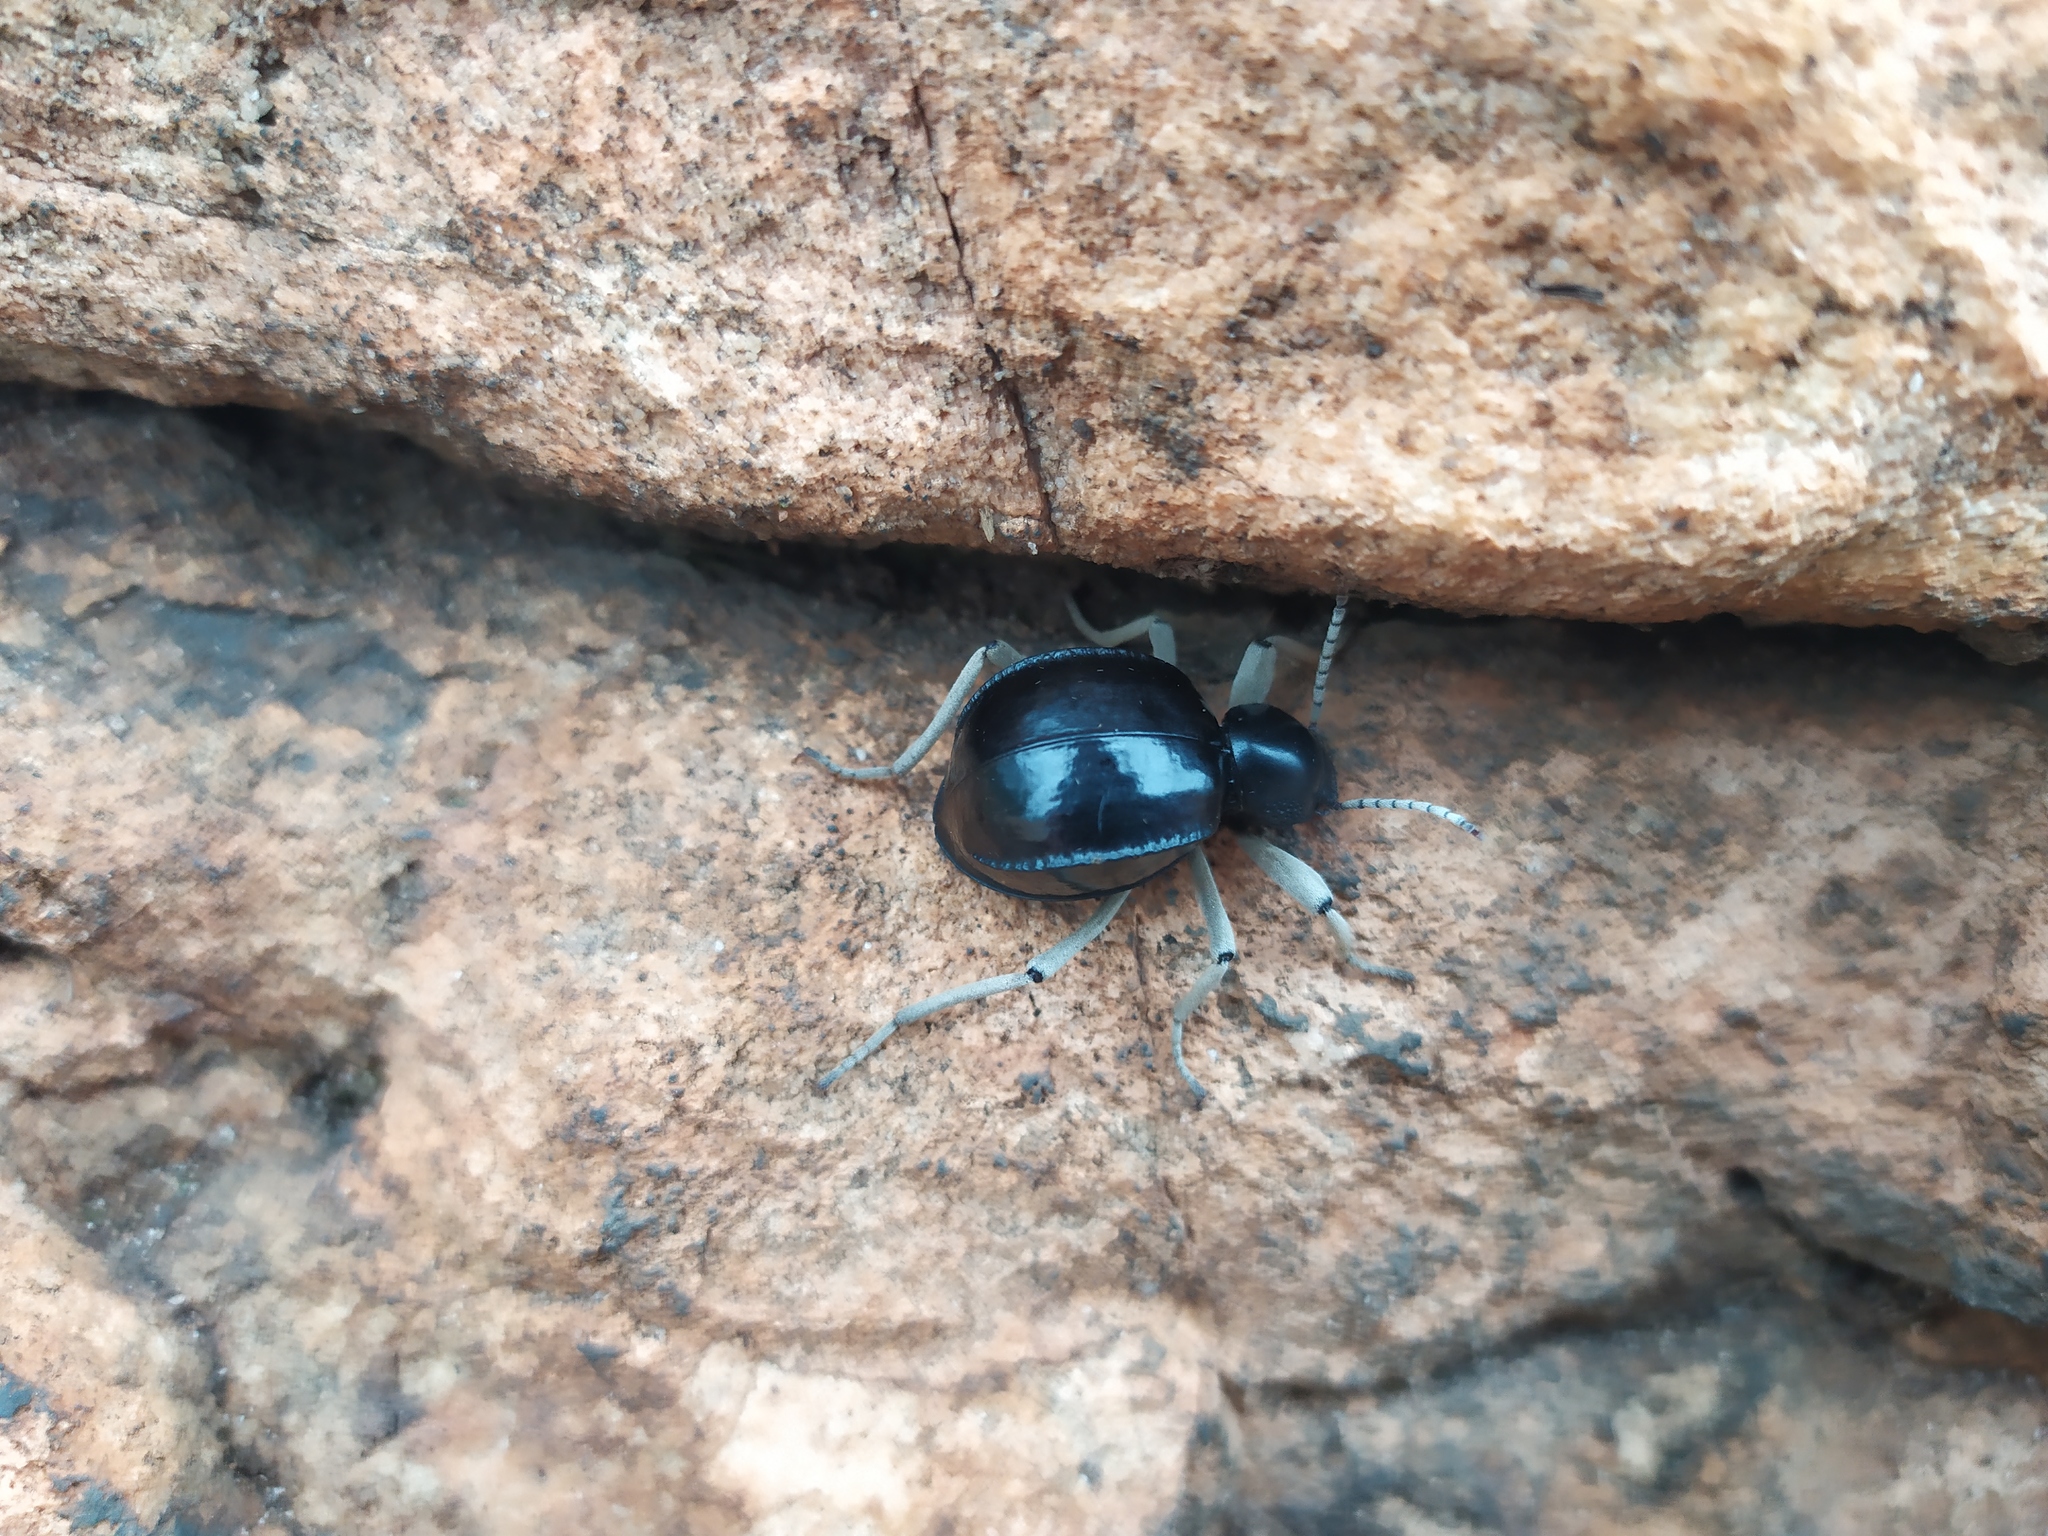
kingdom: Animalia
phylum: Arthropoda
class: Insecta
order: Coleoptera
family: Tenebrionidae
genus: Dichtha
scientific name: Dichtha cubica
